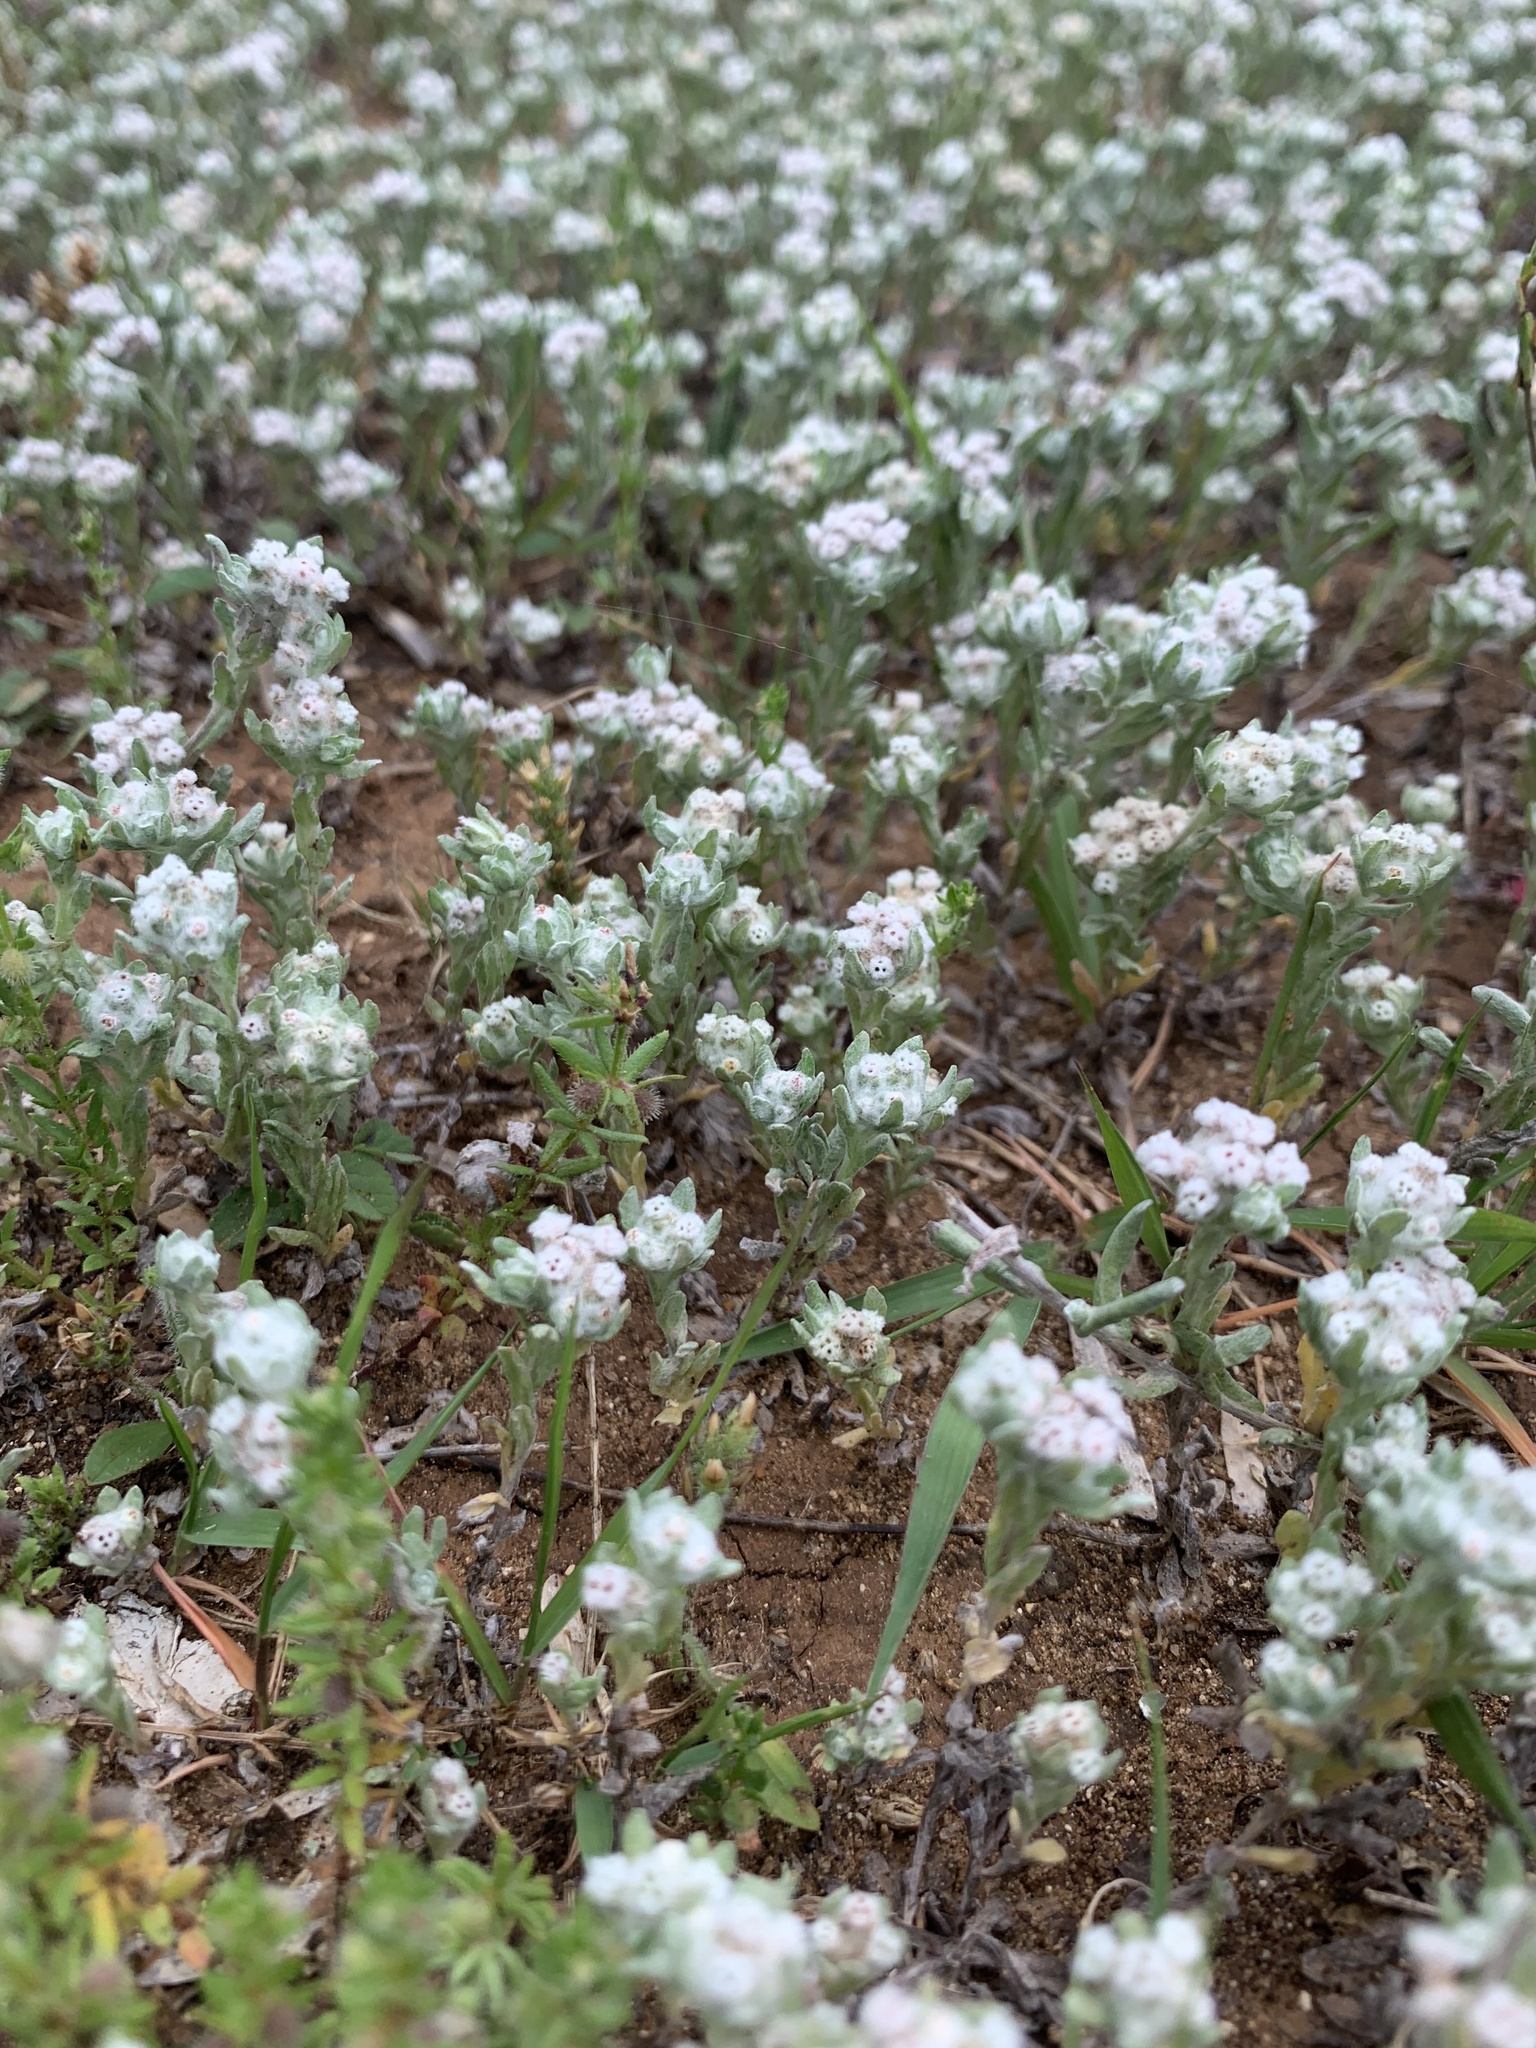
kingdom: Plantae
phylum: Tracheophyta
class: Magnoliopsida
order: Asterales
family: Asteraceae
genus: Diaperia
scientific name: Diaperia verna
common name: Many-stem rabbit-tobacco
